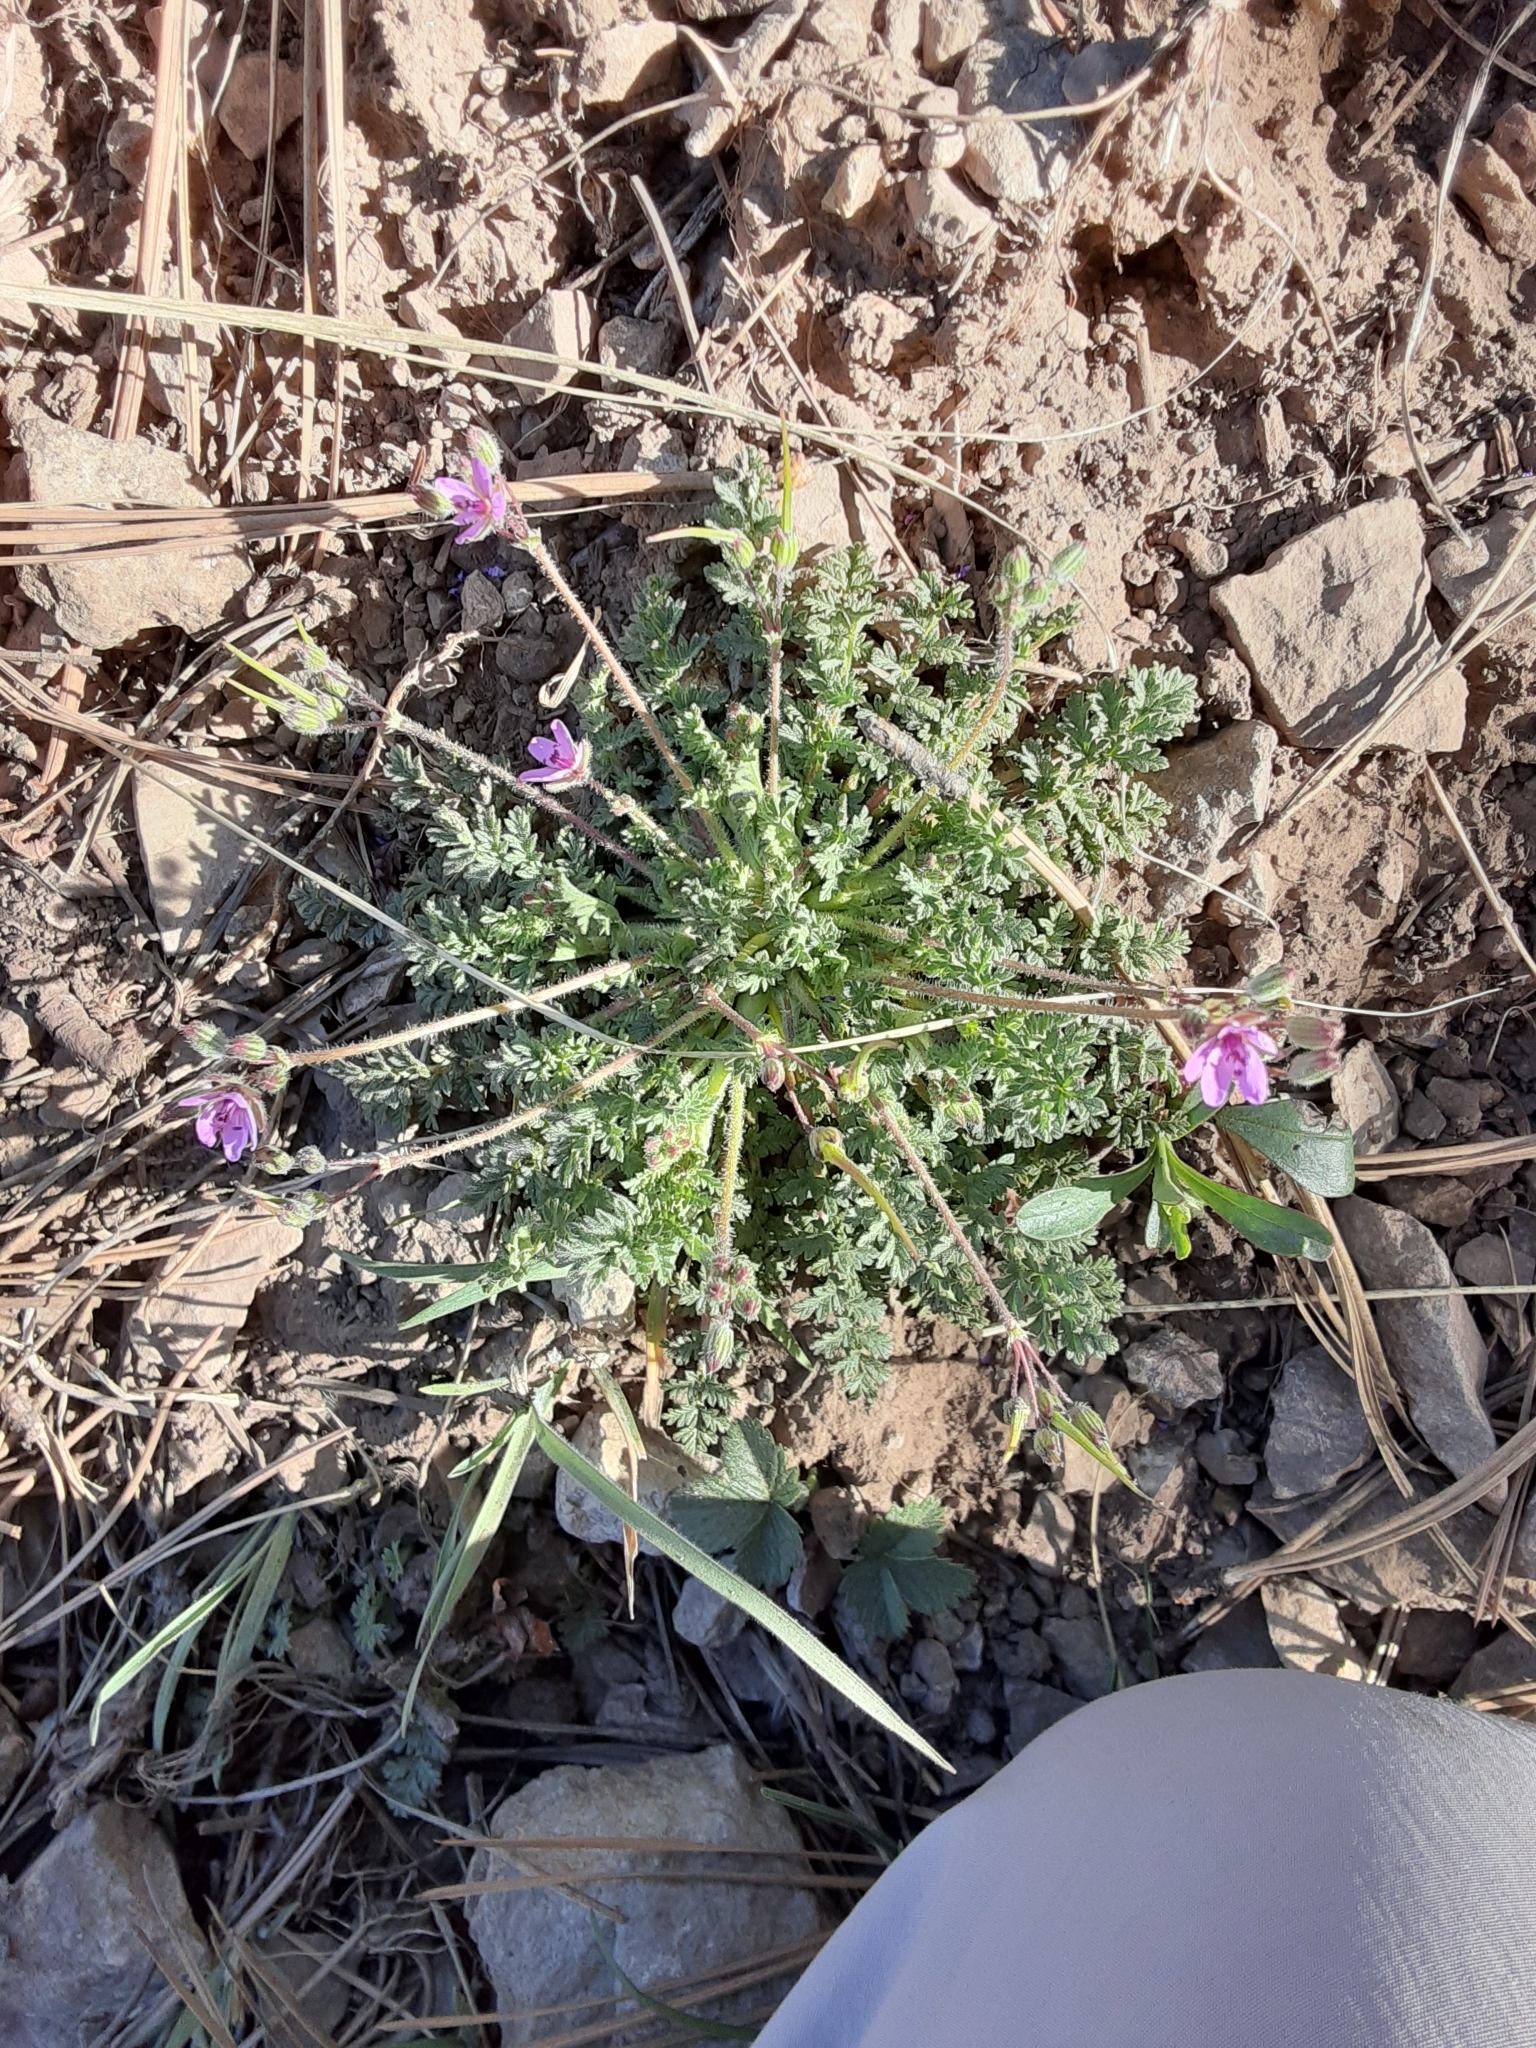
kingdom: Plantae
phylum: Tracheophyta
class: Magnoliopsida
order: Geraniales
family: Geraniaceae
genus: Erodium
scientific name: Erodium cicutarium
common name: Common stork's-bill
